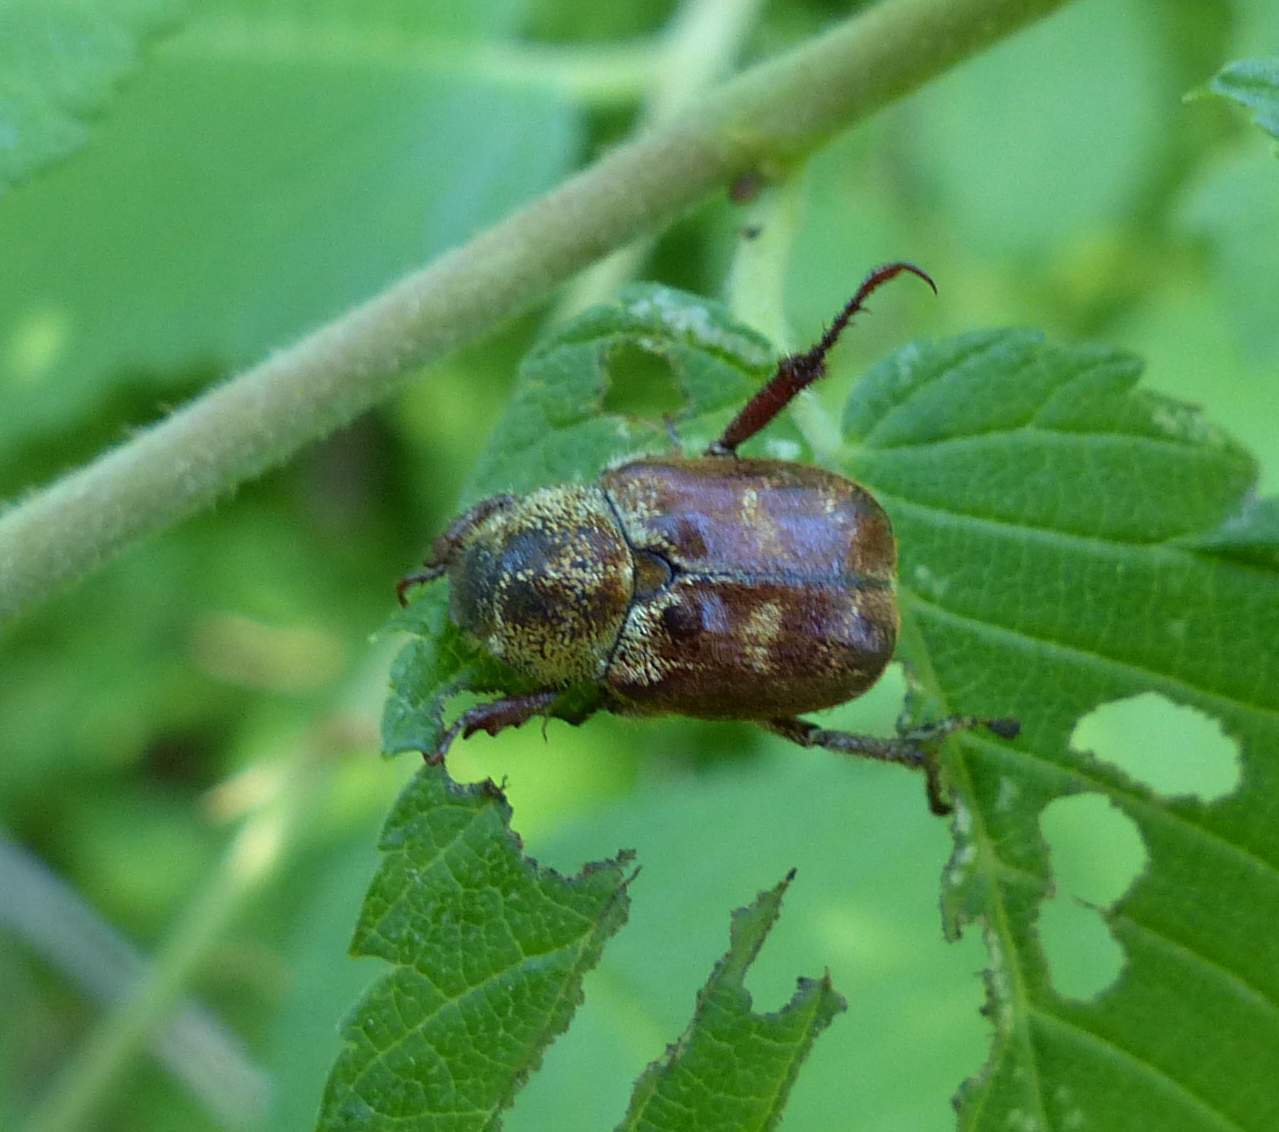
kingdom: Animalia
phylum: Arthropoda
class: Insecta
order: Coleoptera
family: Scarabaeidae
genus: Hoplia
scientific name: Hoplia trifasciata
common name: Three-lined hoplia
